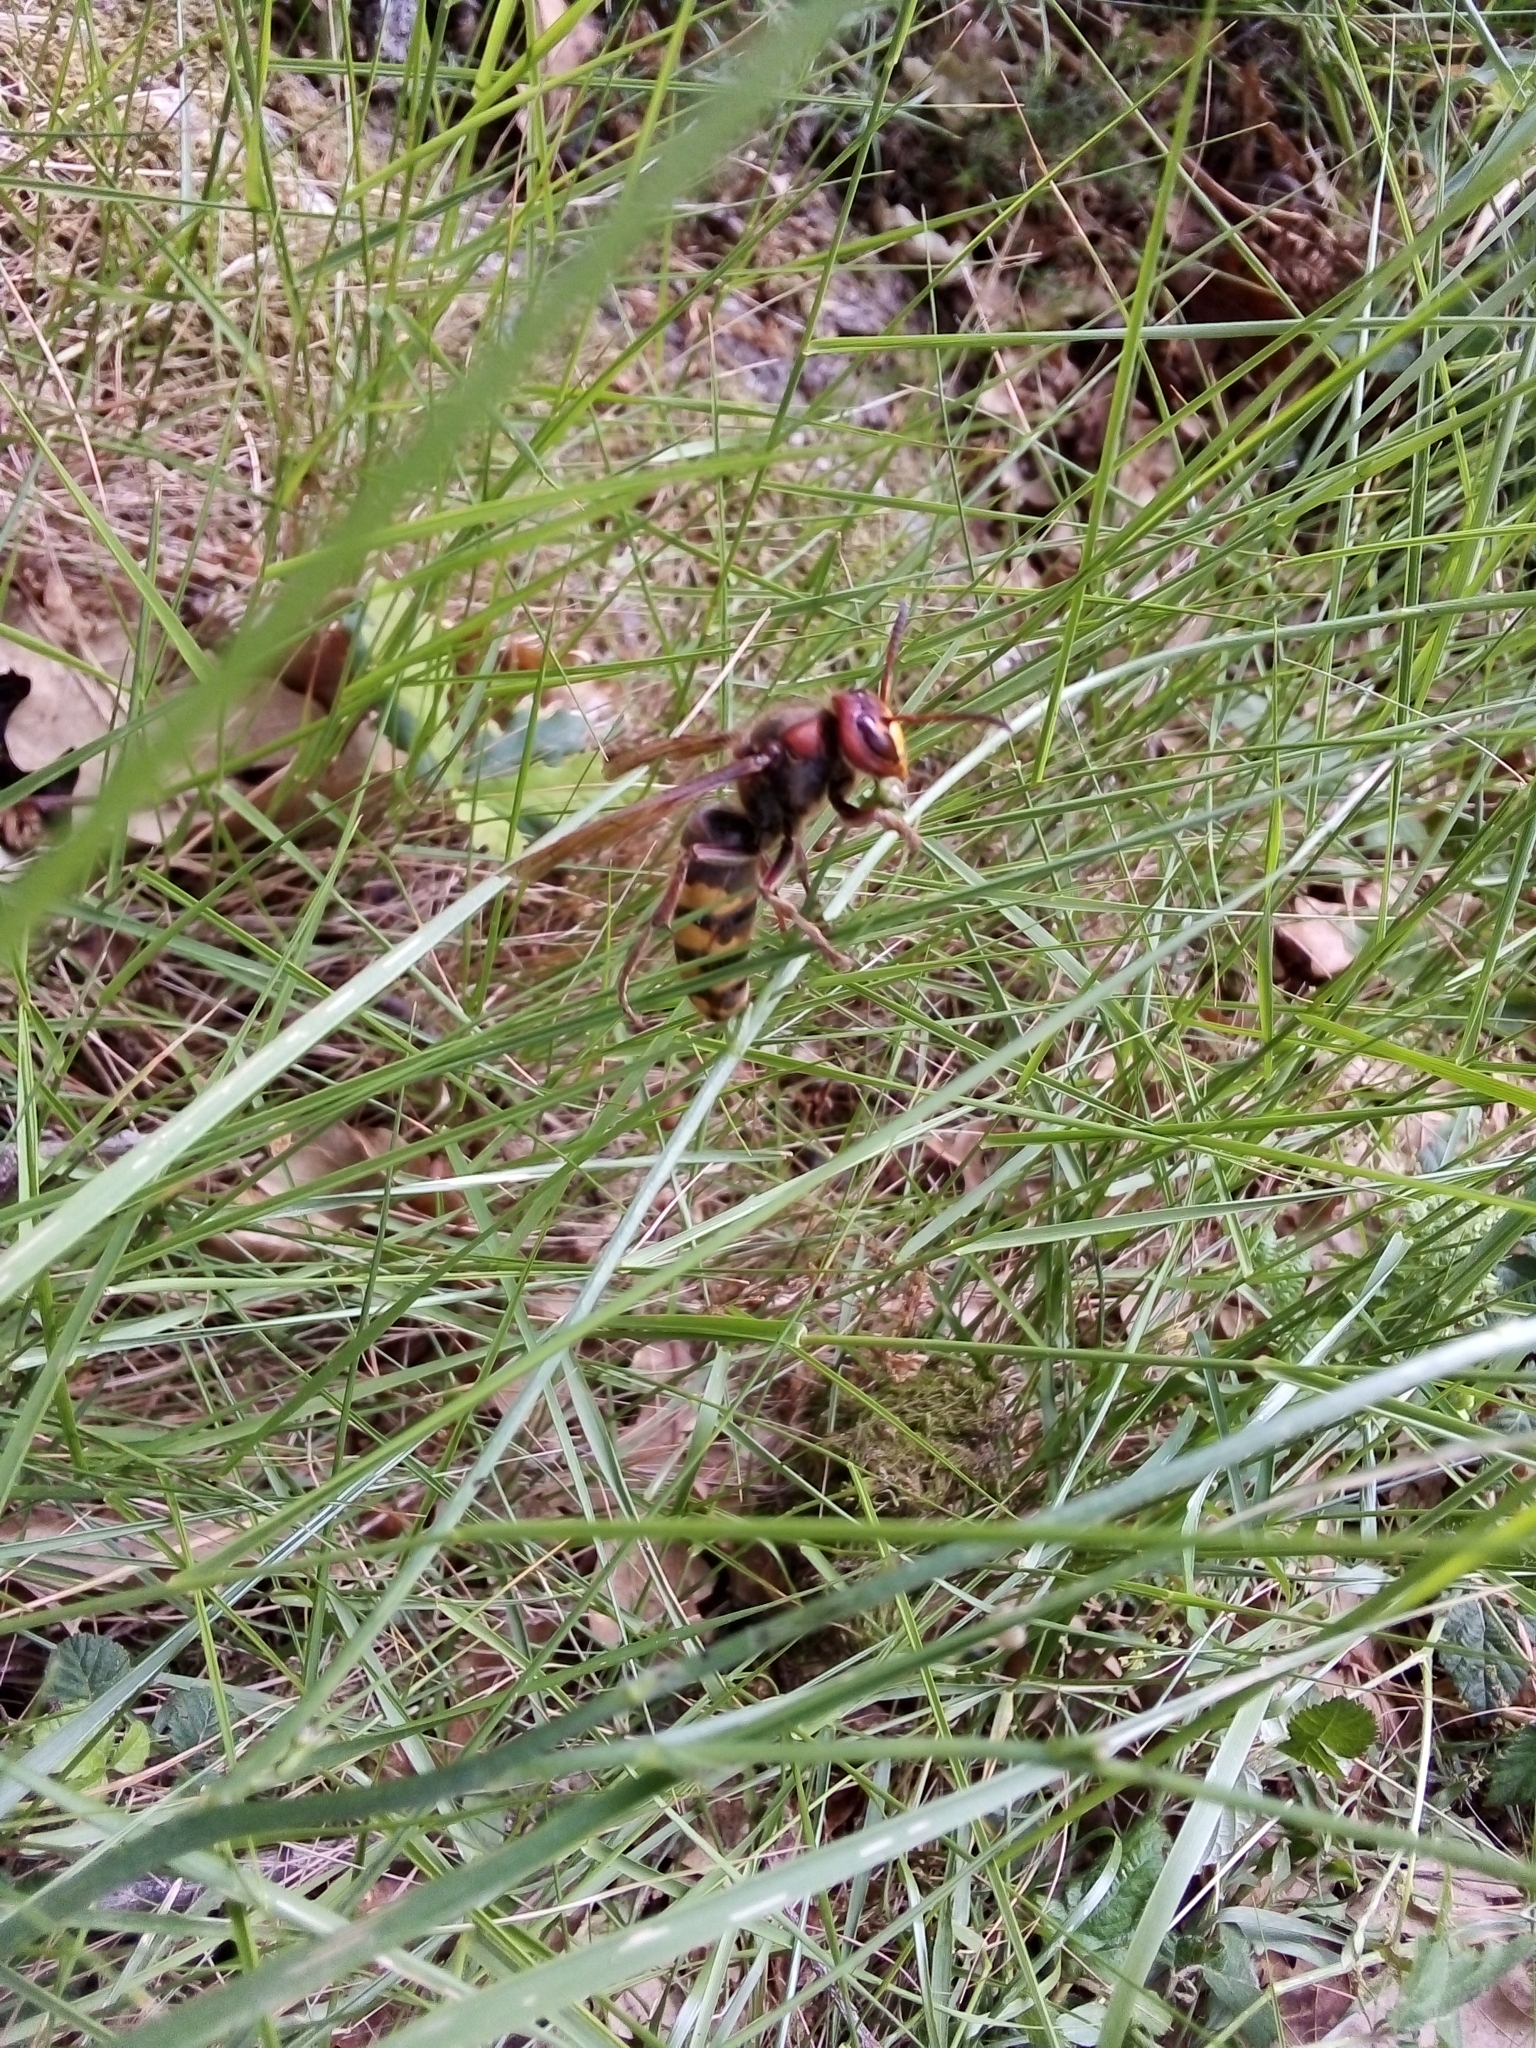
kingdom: Animalia
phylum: Arthropoda
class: Insecta
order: Hymenoptera
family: Vespidae
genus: Vespa
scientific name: Vespa crabro
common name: Hornet
